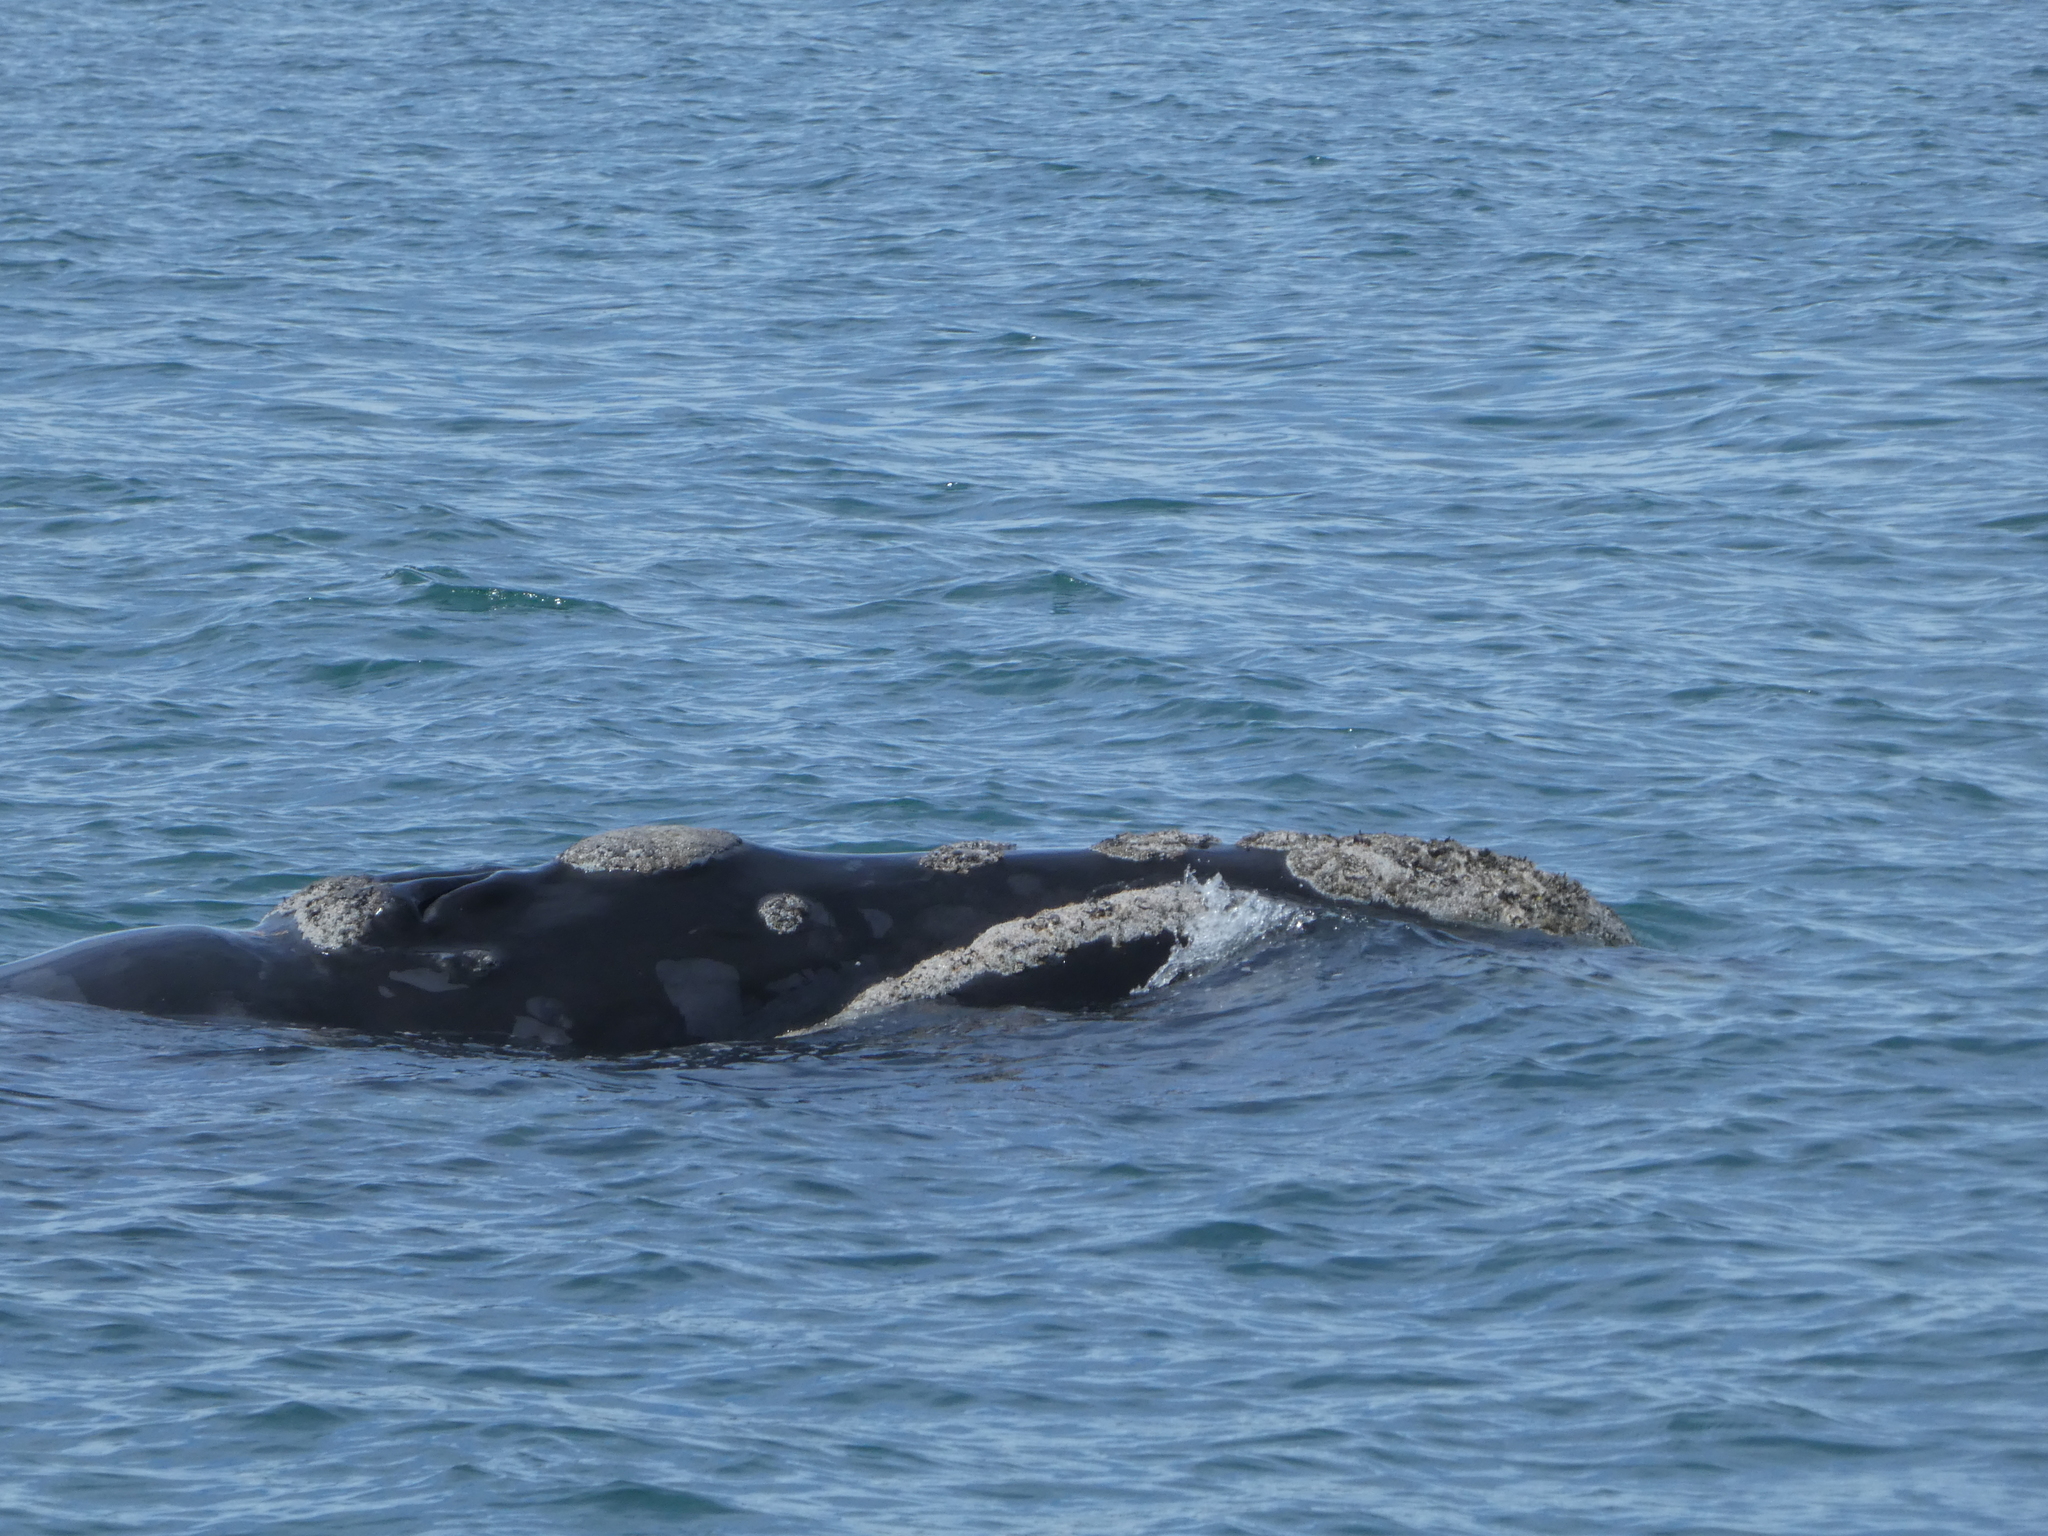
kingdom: Animalia
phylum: Chordata
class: Mammalia
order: Cetacea
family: Balaenidae
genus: Eubalaena
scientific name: Eubalaena australis
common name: Southern right whale
